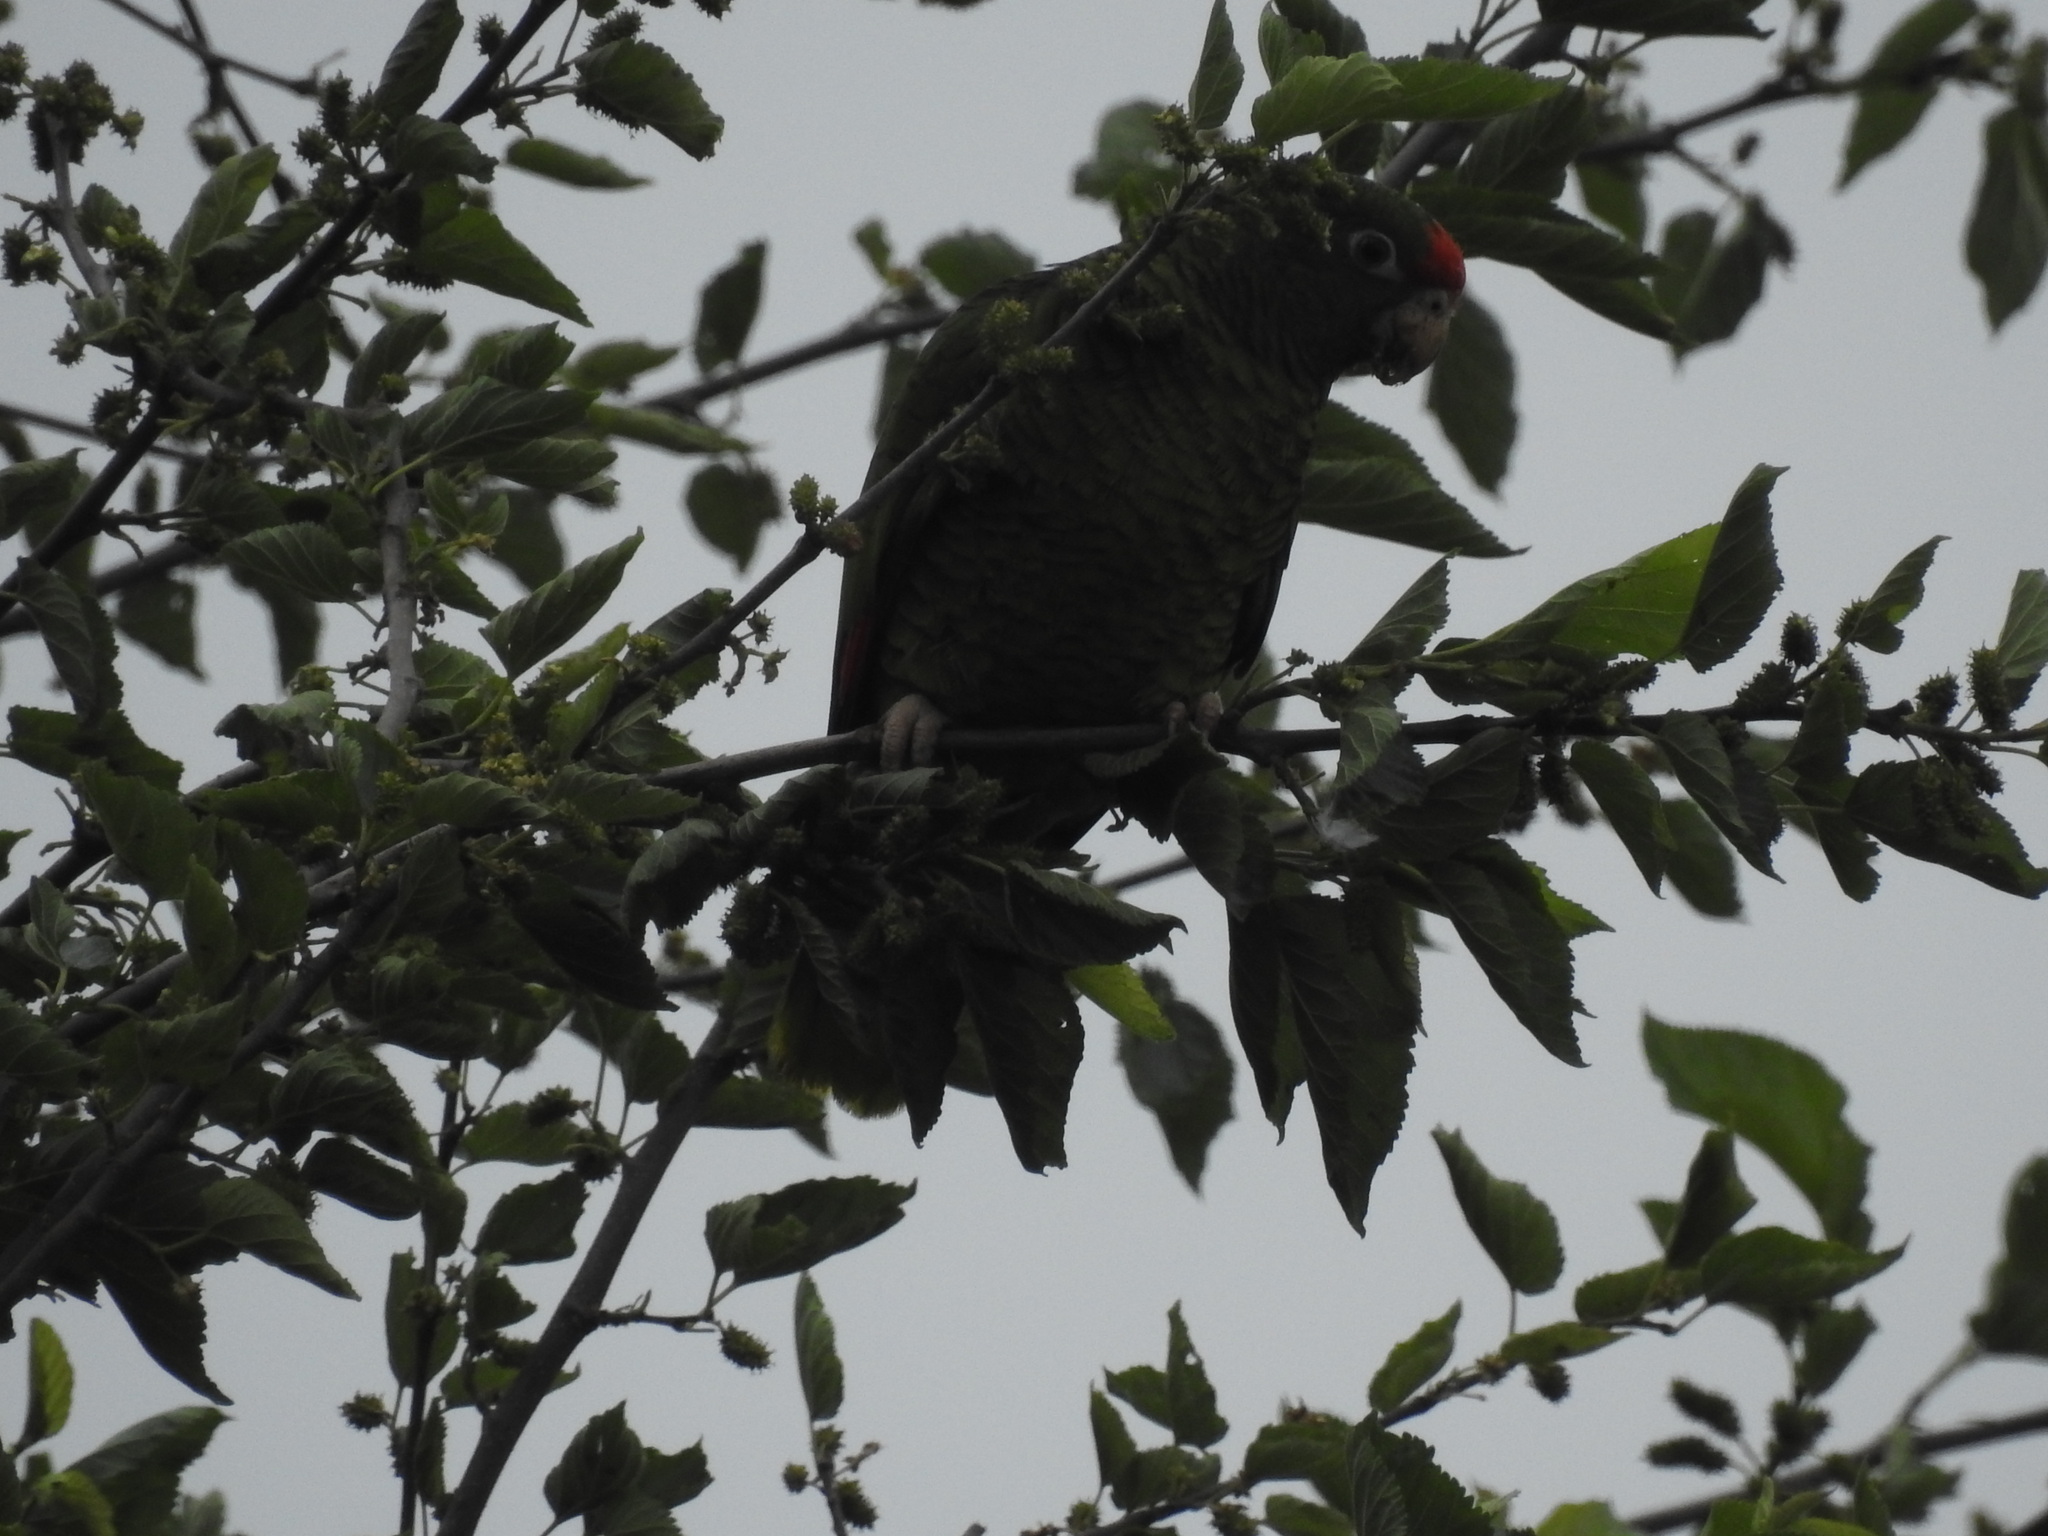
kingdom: Animalia
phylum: Chordata
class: Aves
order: Psittaciformes
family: Psittacidae
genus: Amazona
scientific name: Amazona tucumana
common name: Tucuman amazon
